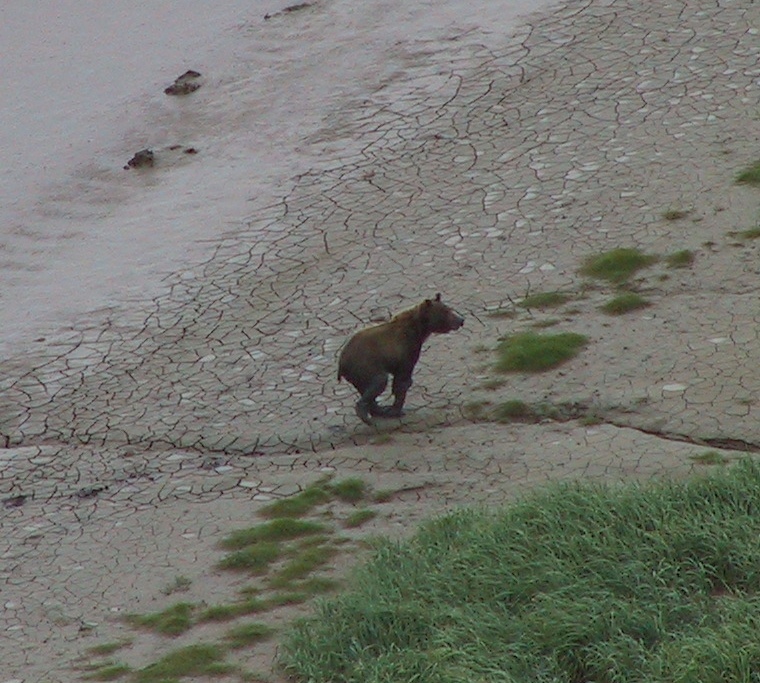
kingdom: Animalia
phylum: Chordata
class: Mammalia
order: Carnivora
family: Ursidae
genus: Ursus
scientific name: Ursus arctos
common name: Brown bear
